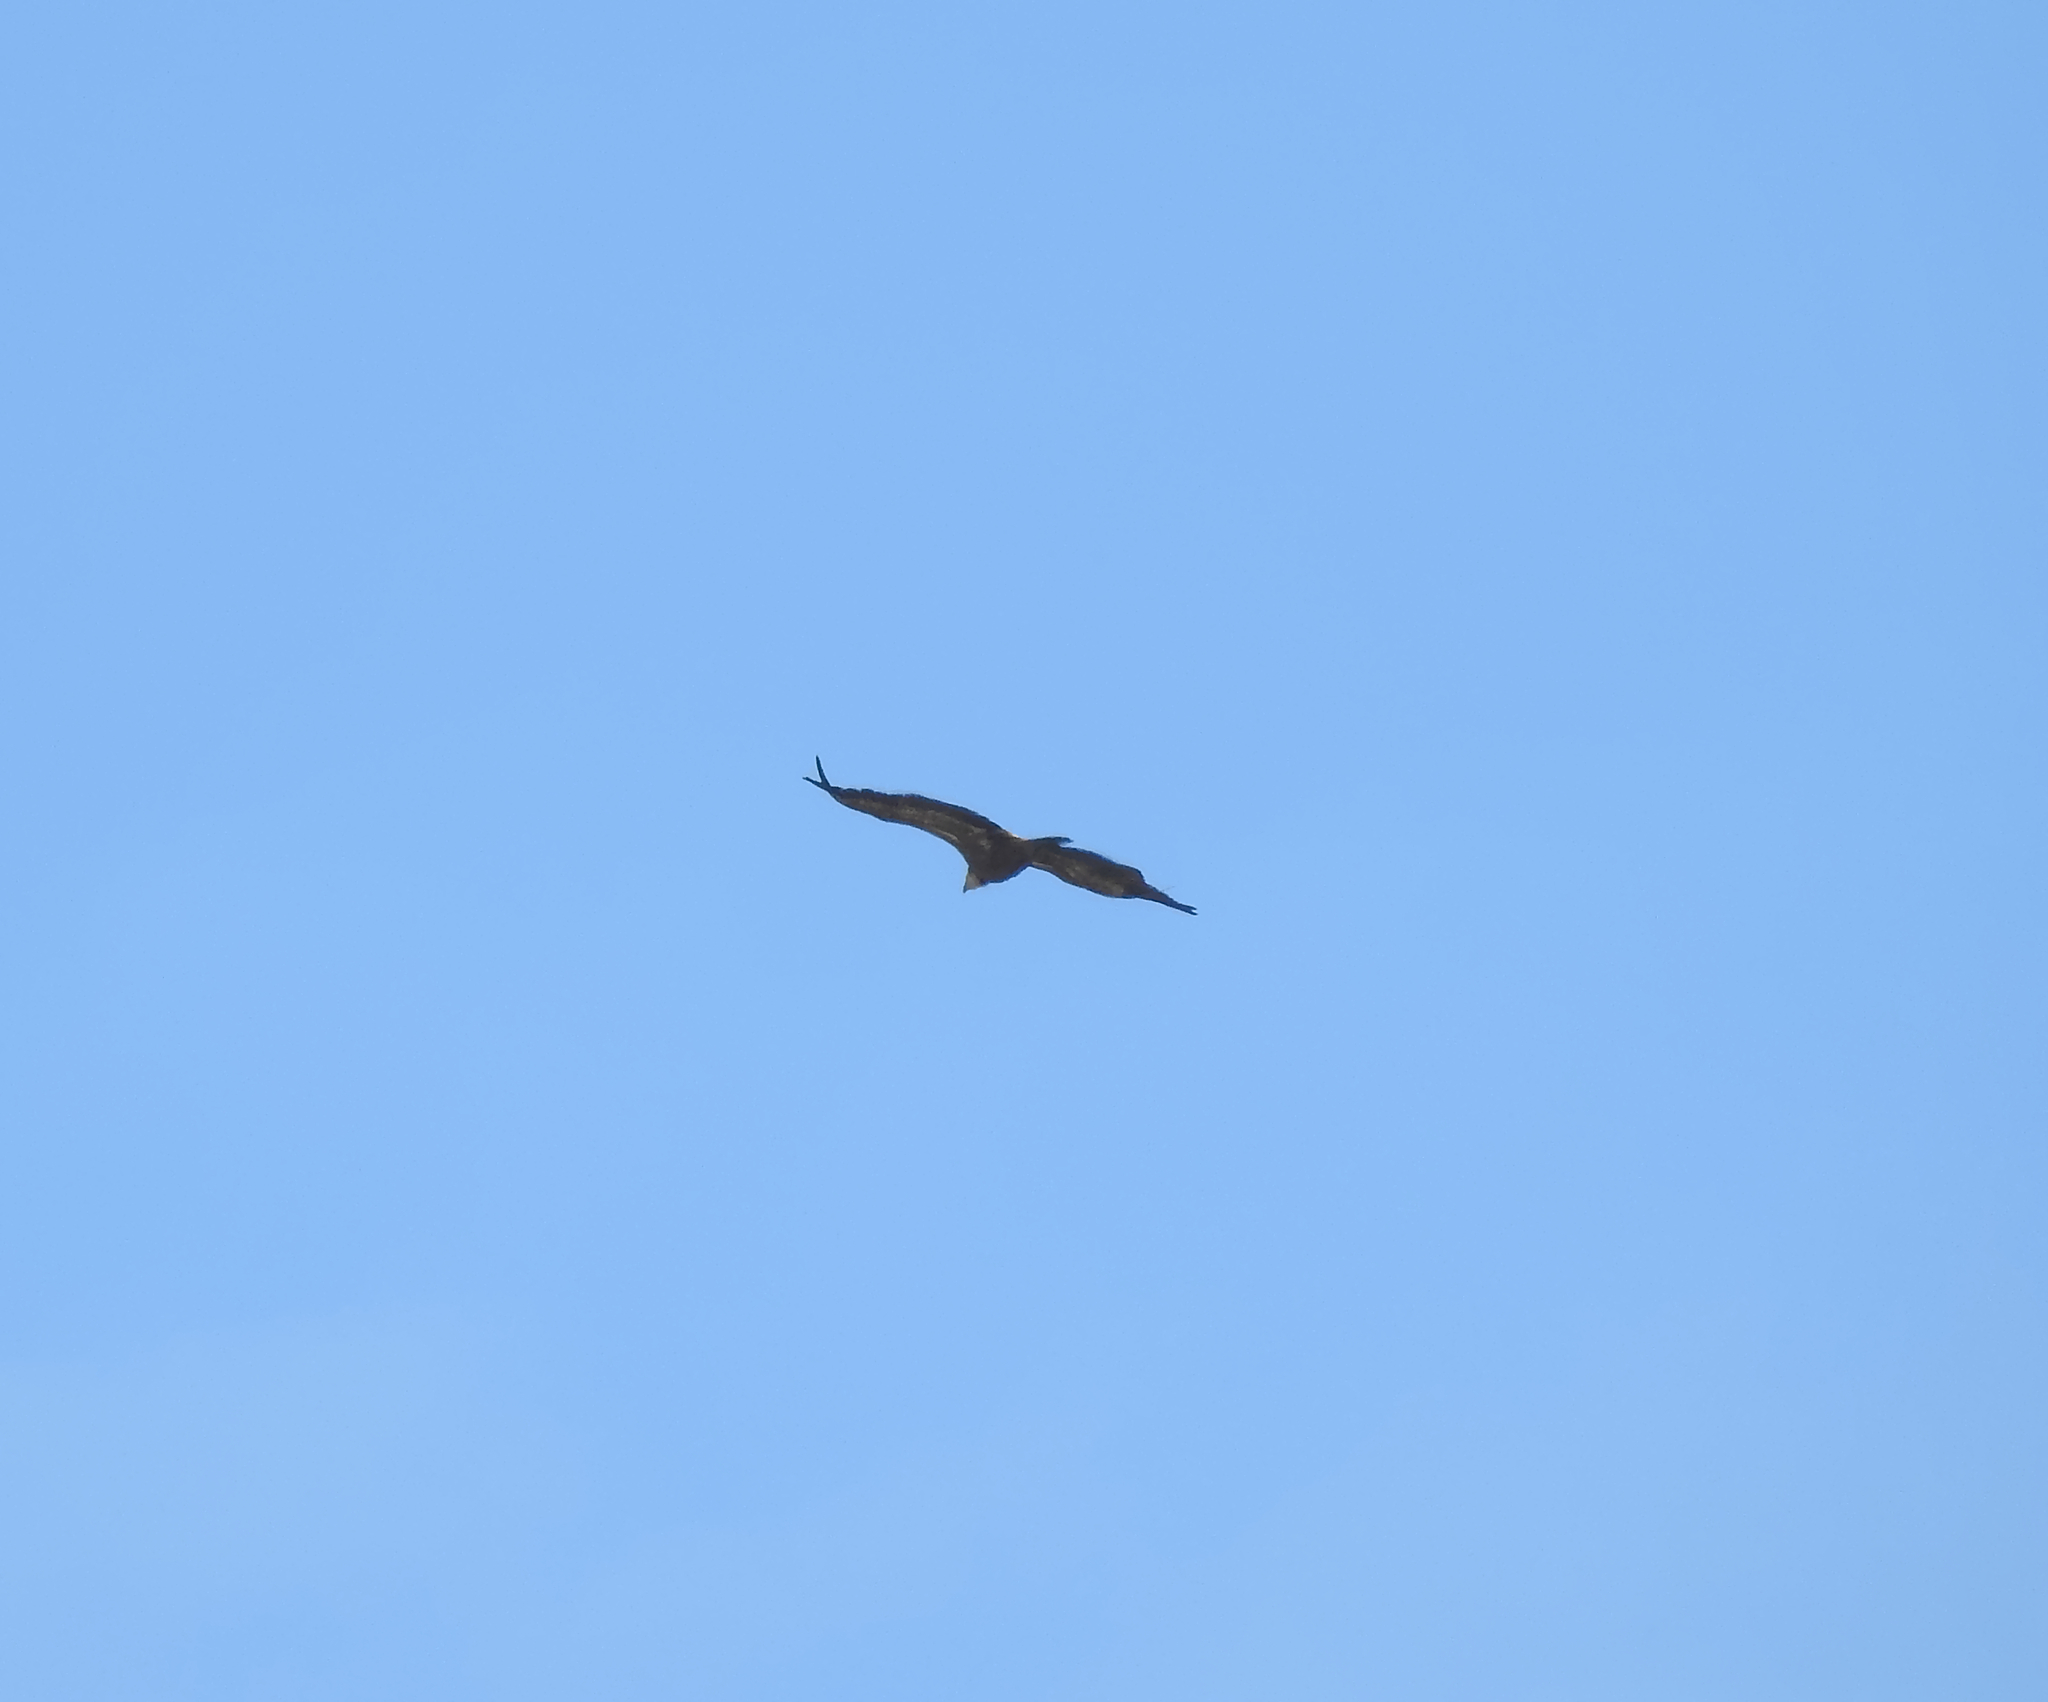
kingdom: Animalia
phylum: Chordata
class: Aves
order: Accipitriformes
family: Accipitridae
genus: Gyps
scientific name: Gyps fulvus
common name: Griffon vulture
